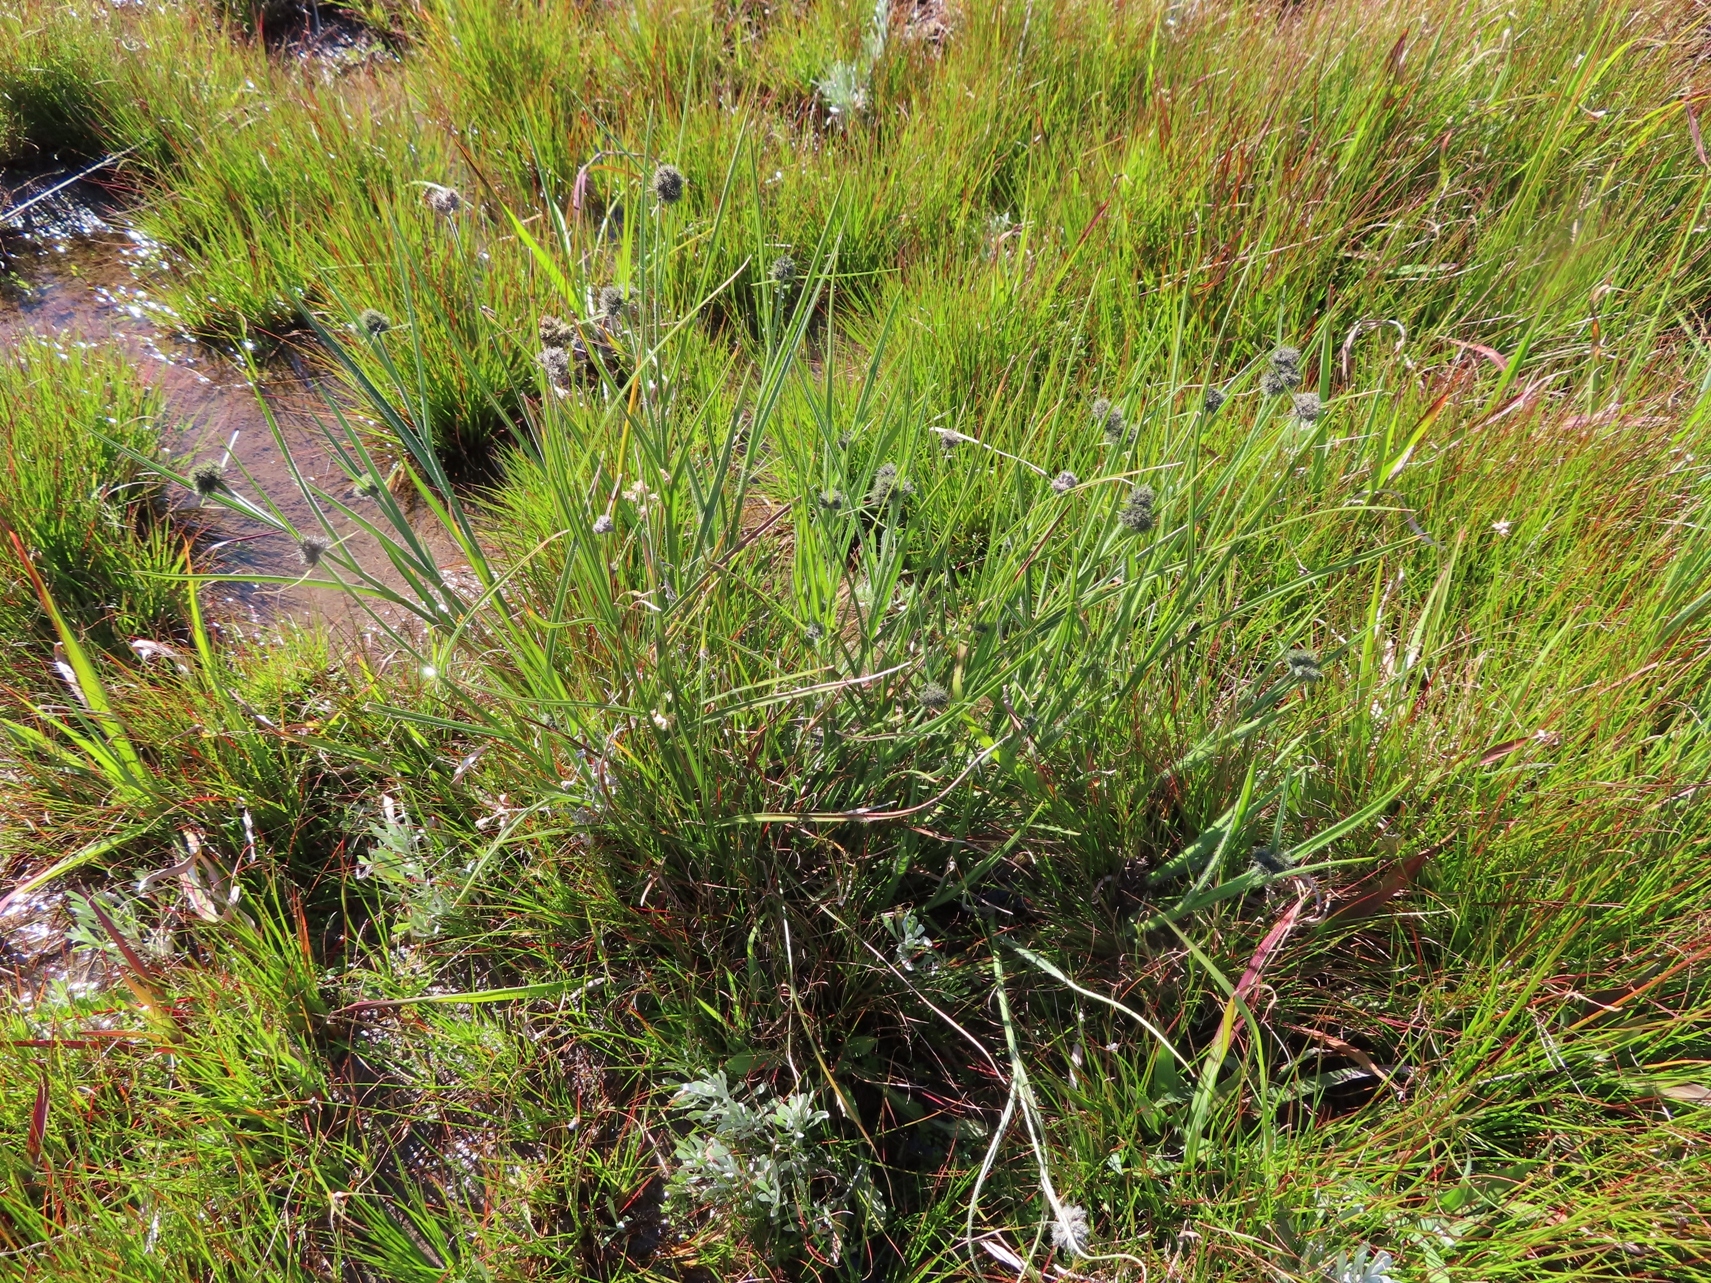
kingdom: Plantae
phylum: Tracheophyta
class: Liliopsida
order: Poales
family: Cyperaceae
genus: Fuirena
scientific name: Fuirena hirsuta
